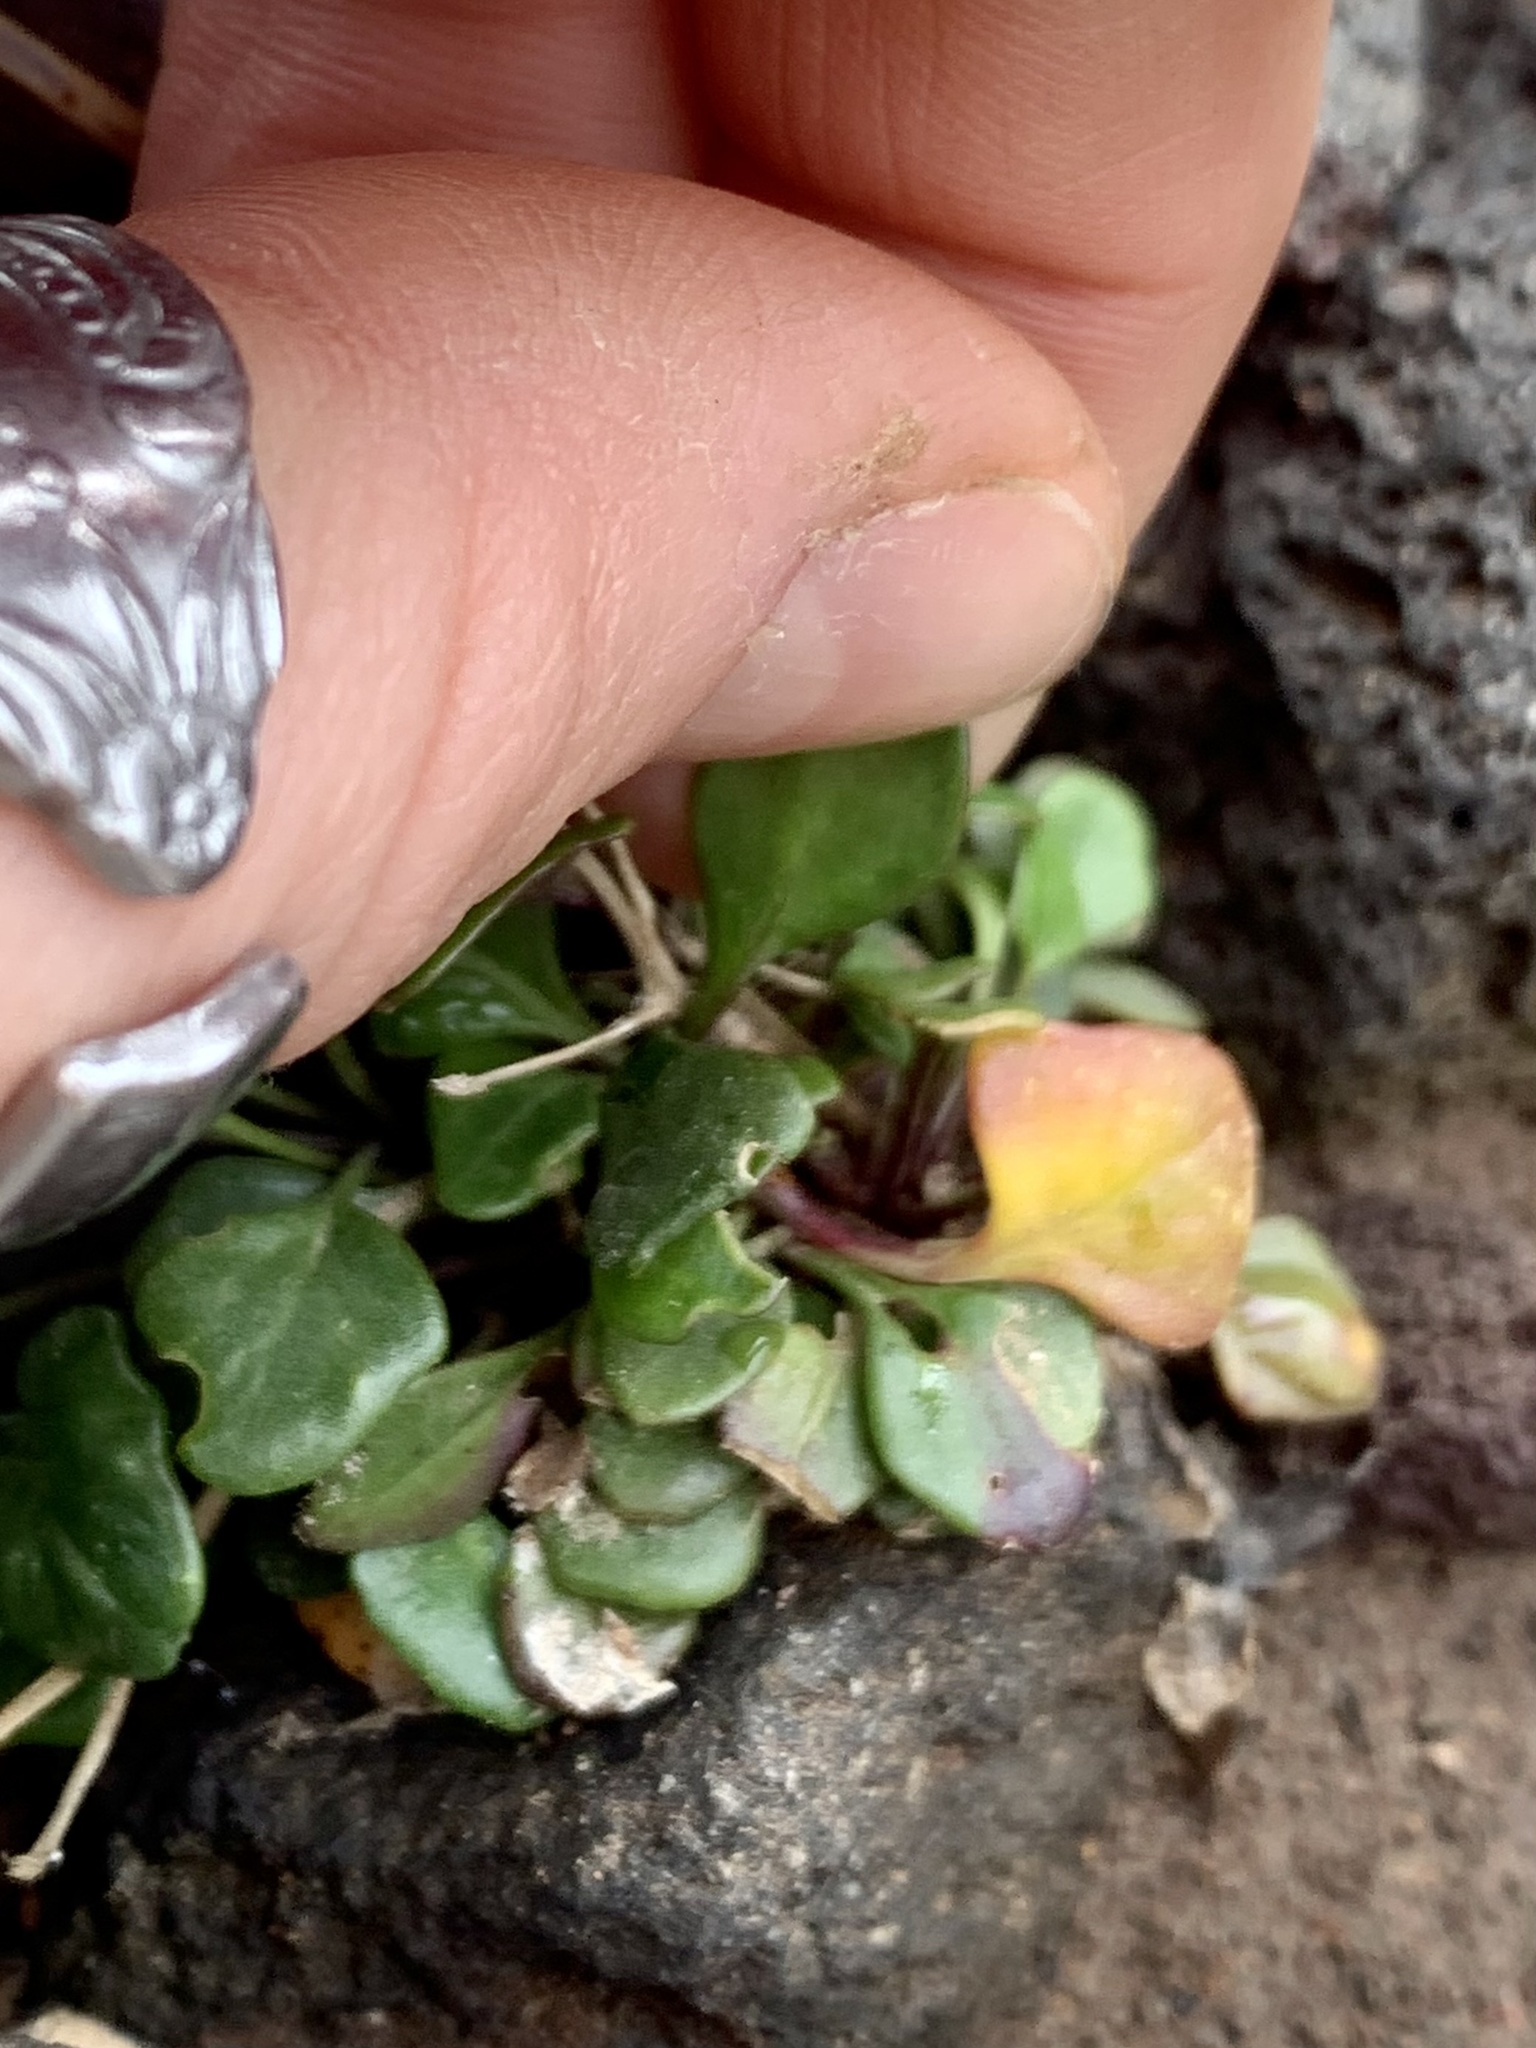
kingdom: Plantae
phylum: Tracheophyta
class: Magnoliopsida
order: Brassicales
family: Brassicaceae
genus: Cardamine
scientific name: Cardamine bellidifolia
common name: Alpine bittercress
